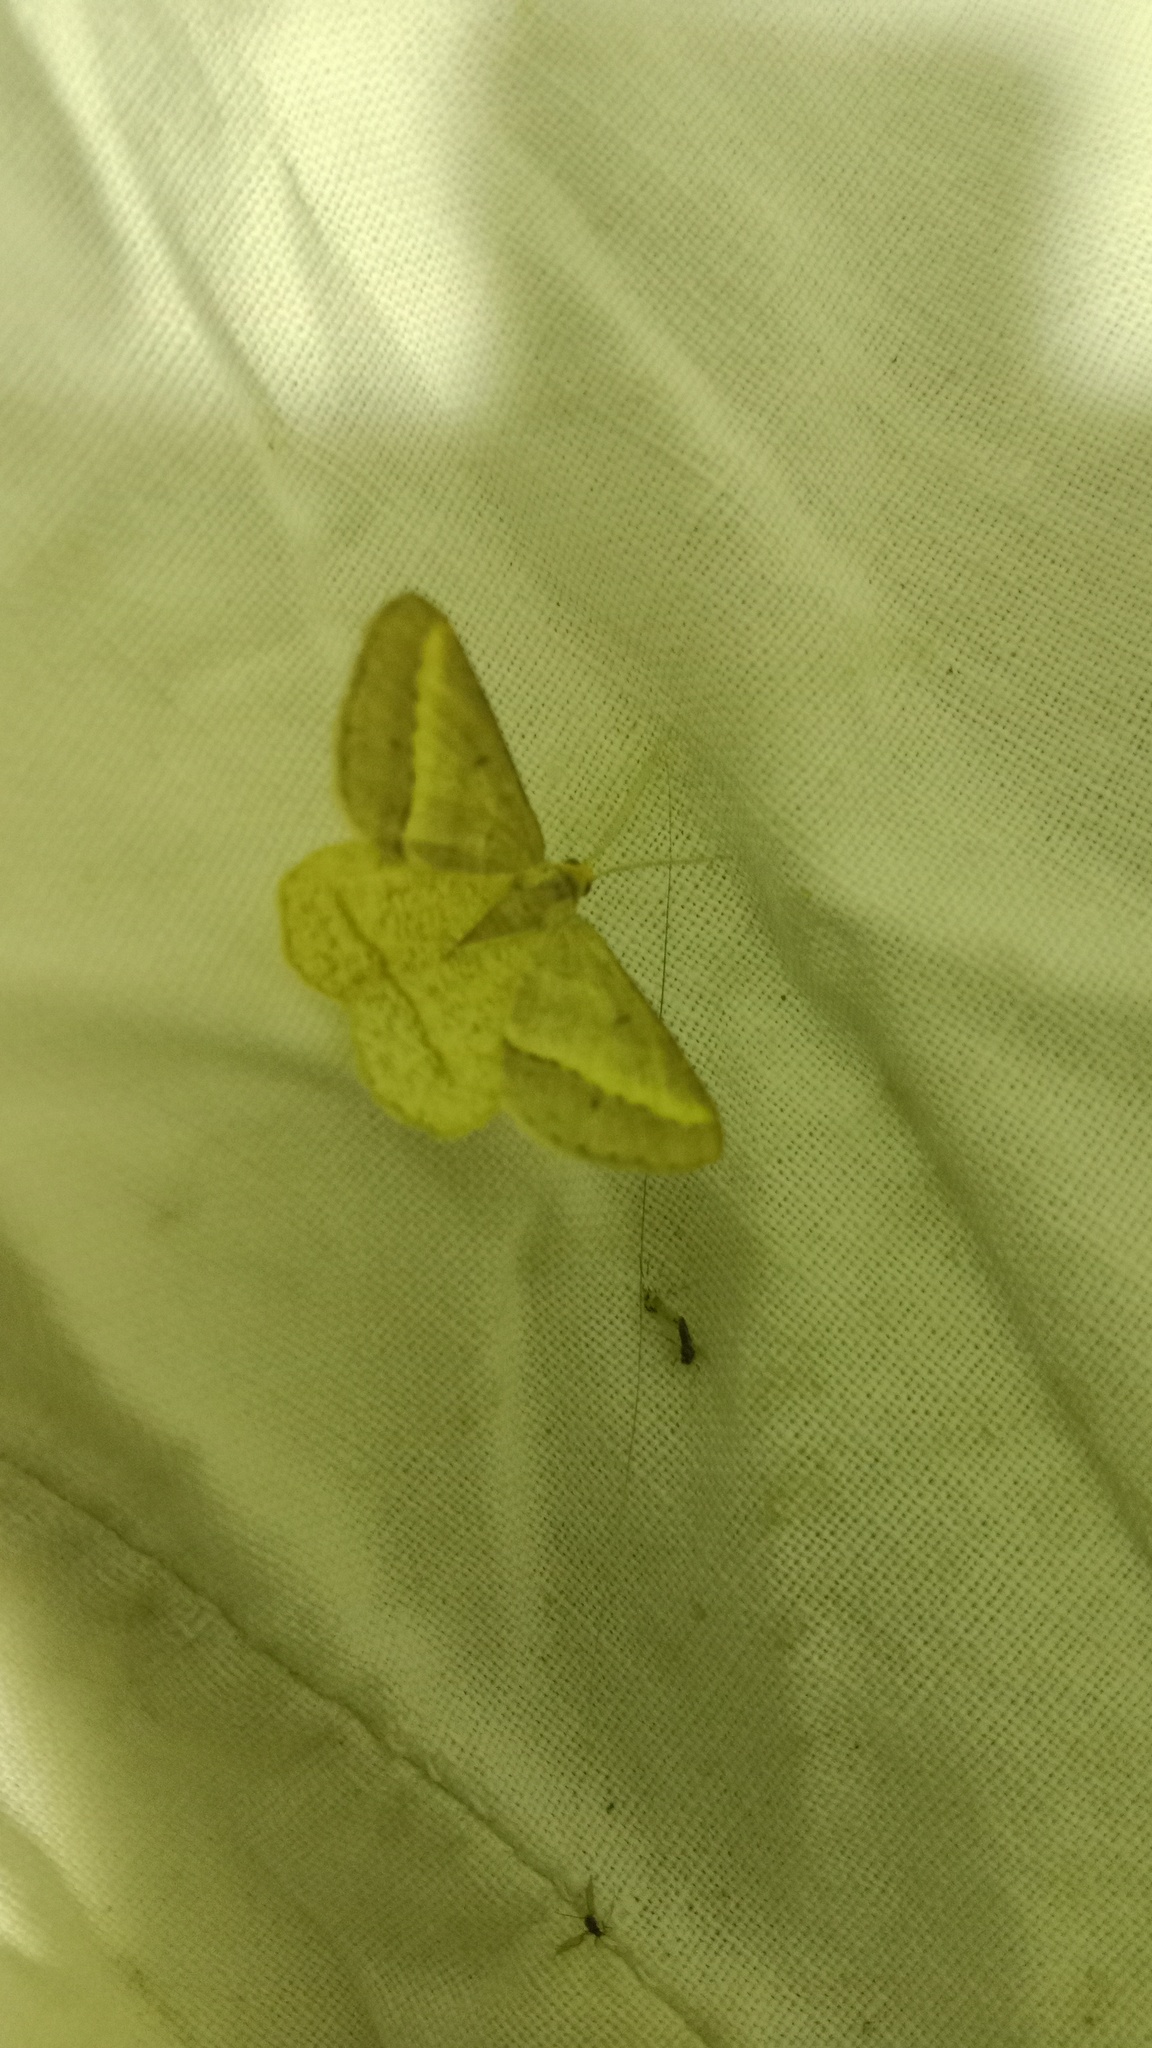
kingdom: Animalia
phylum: Arthropoda
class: Insecta
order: Lepidoptera
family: Geometridae
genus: Tephrina
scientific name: Tephrina arenacearia
